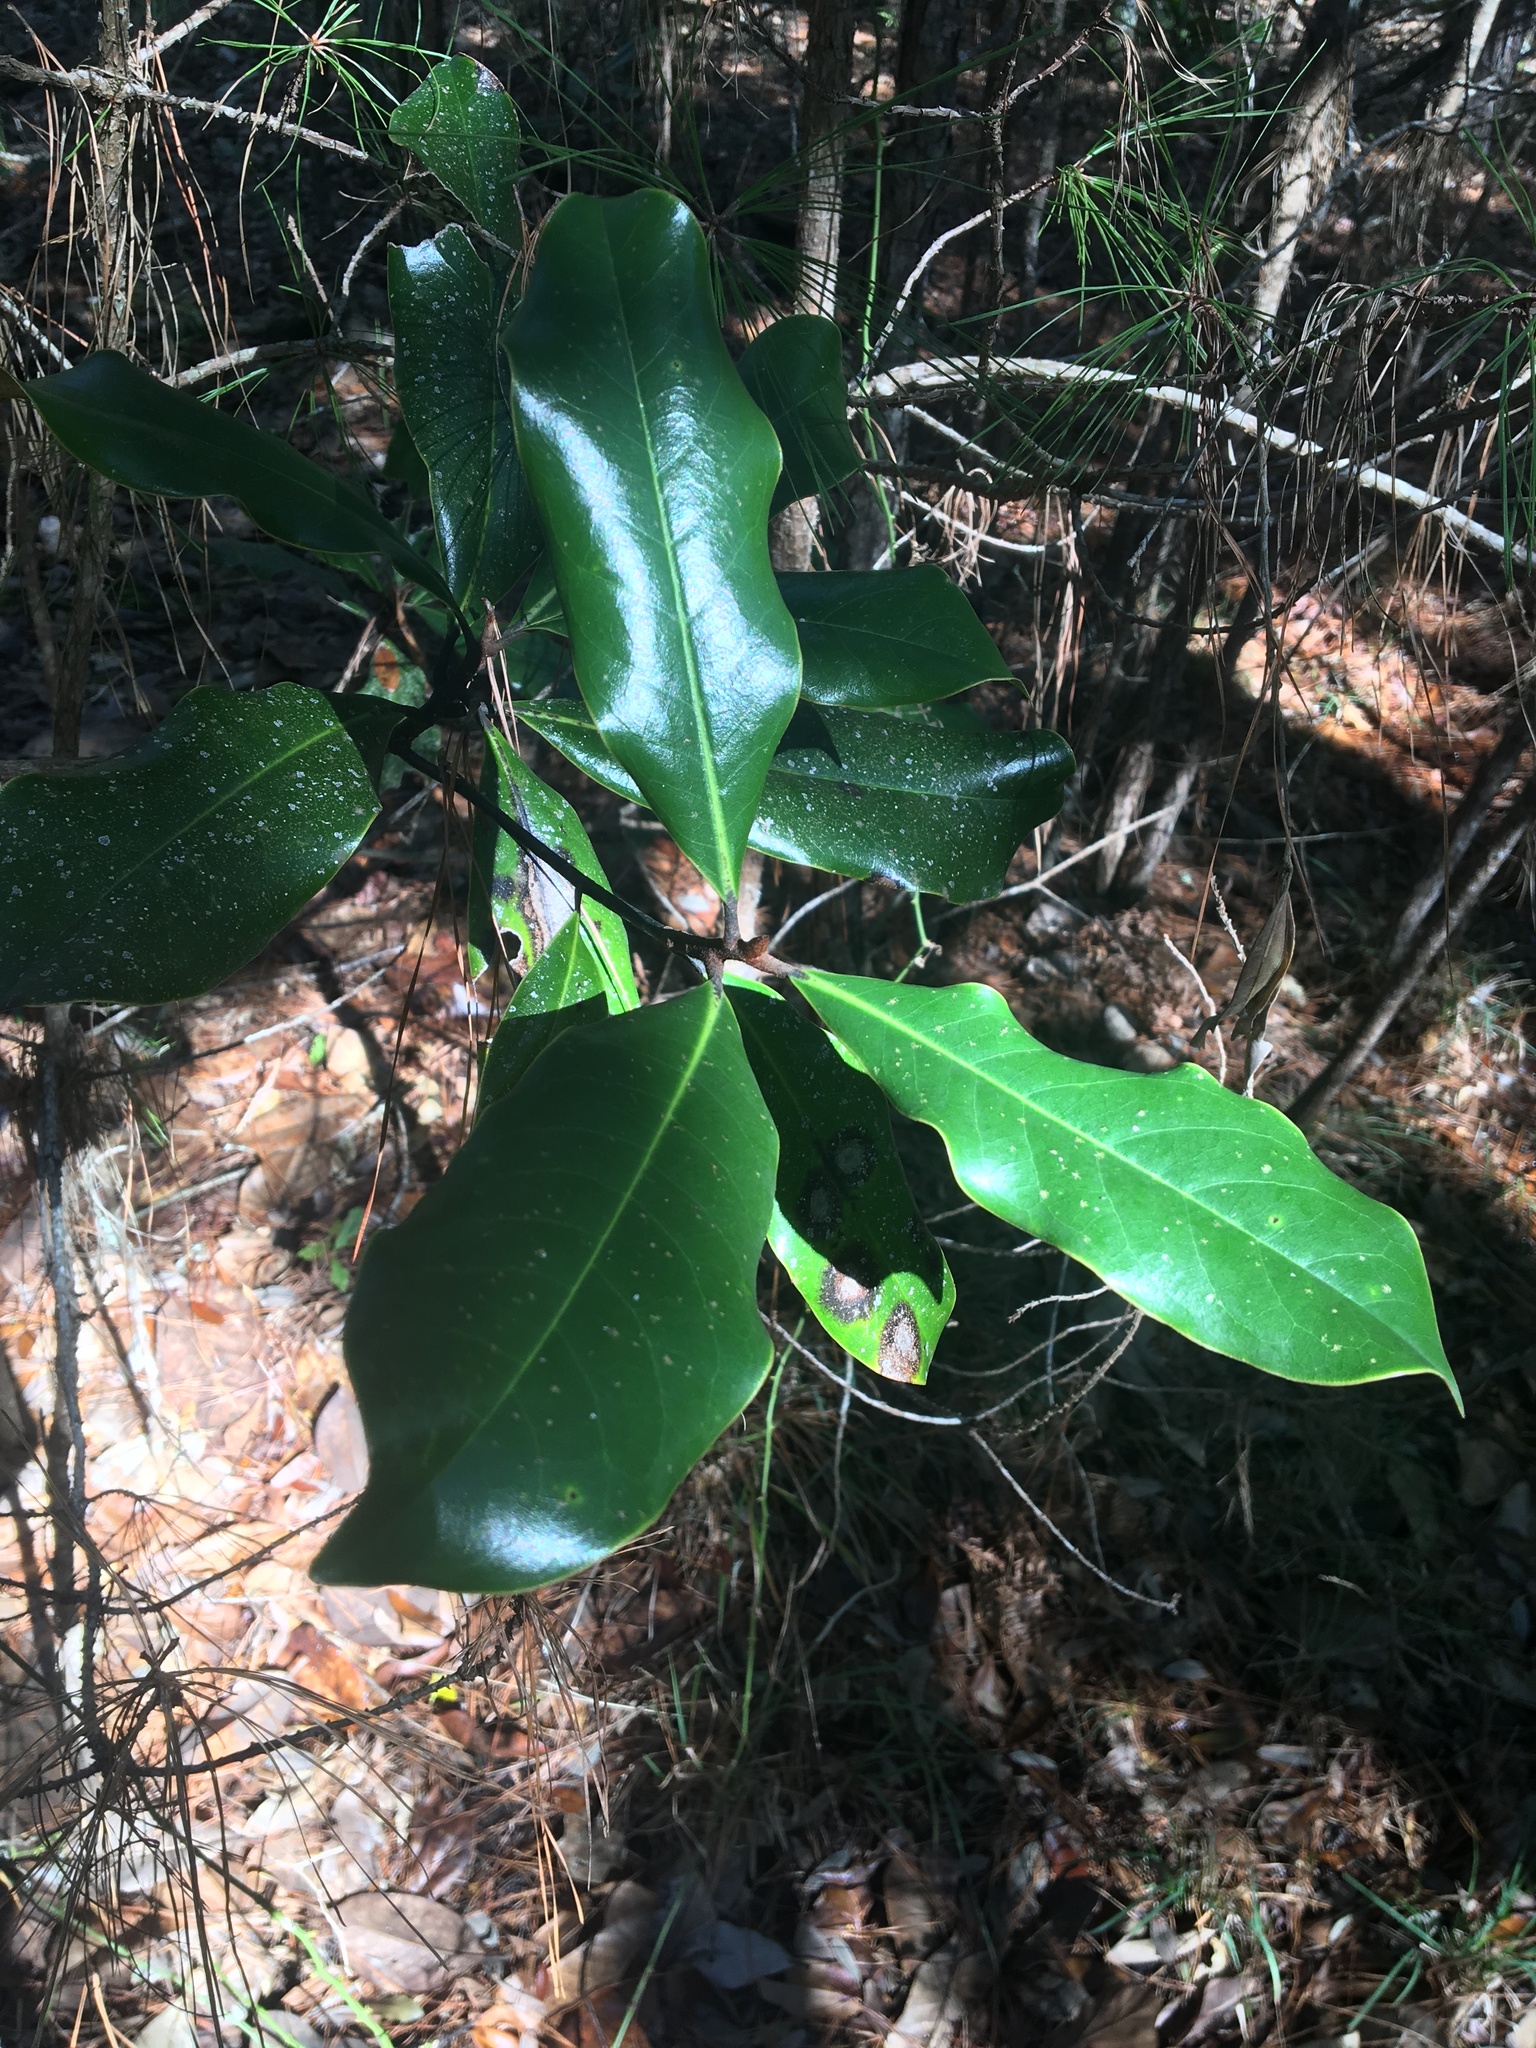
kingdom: Plantae
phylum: Tracheophyta
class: Magnoliopsida
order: Magnoliales
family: Magnoliaceae
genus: Magnolia
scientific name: Magnolia grandiflora
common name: Southern magnolia
